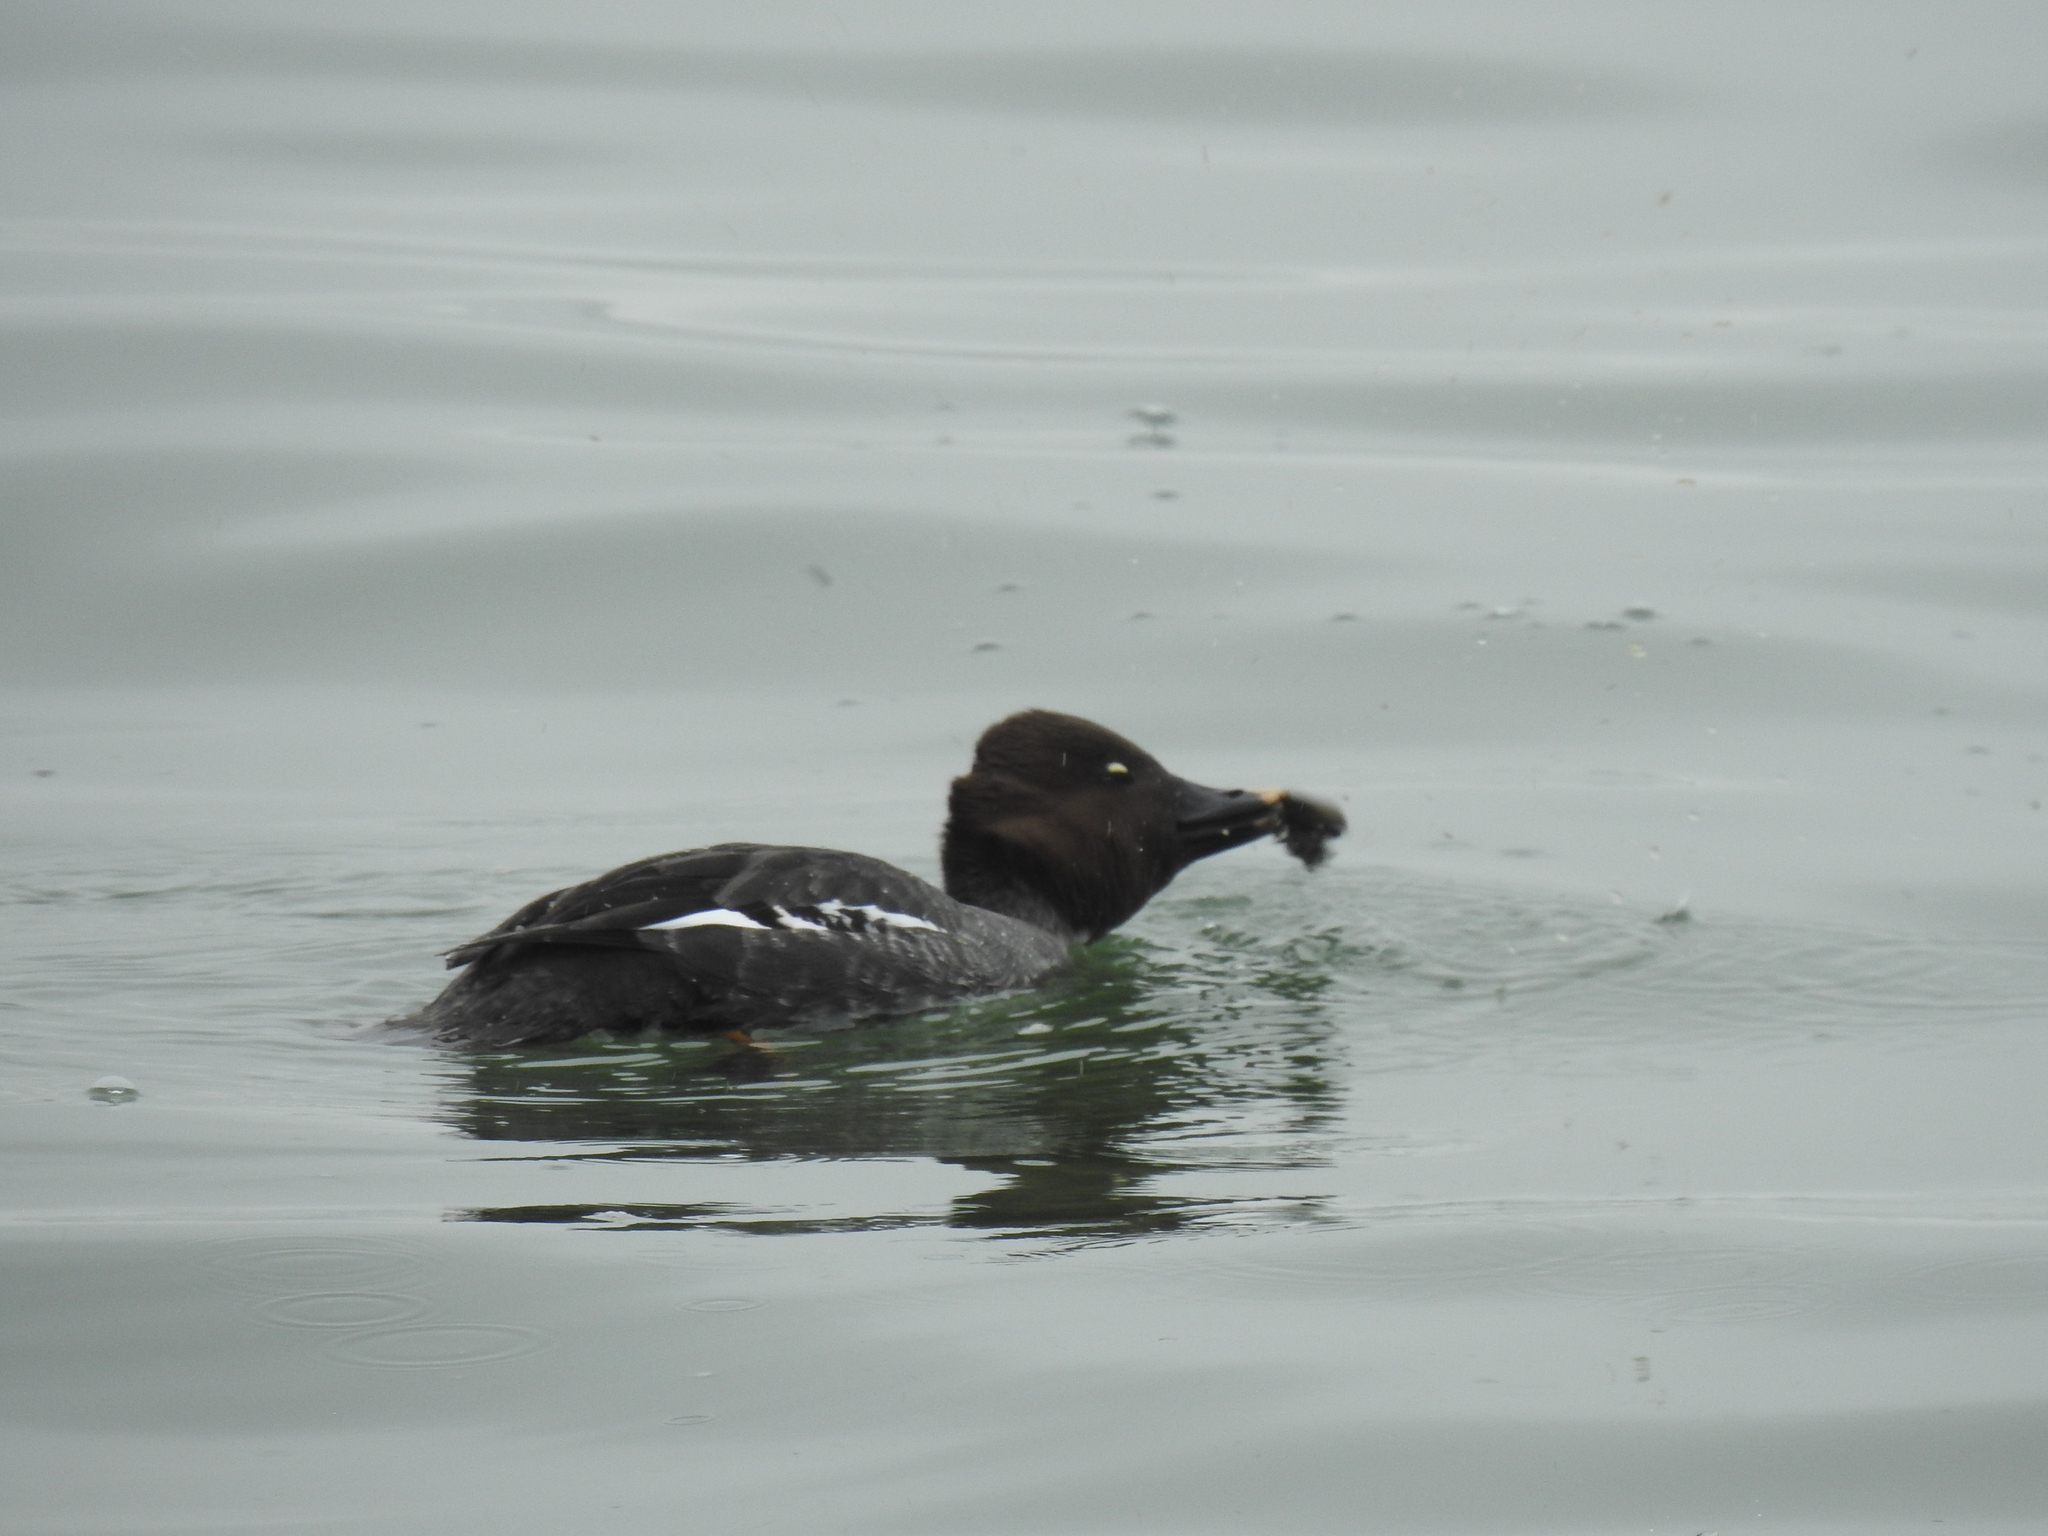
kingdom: Animalia
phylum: Chordata
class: Aves
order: Anseriformes
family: Anatidae
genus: Bucephala
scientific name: Bucephala clangula
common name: Common goldeneye
